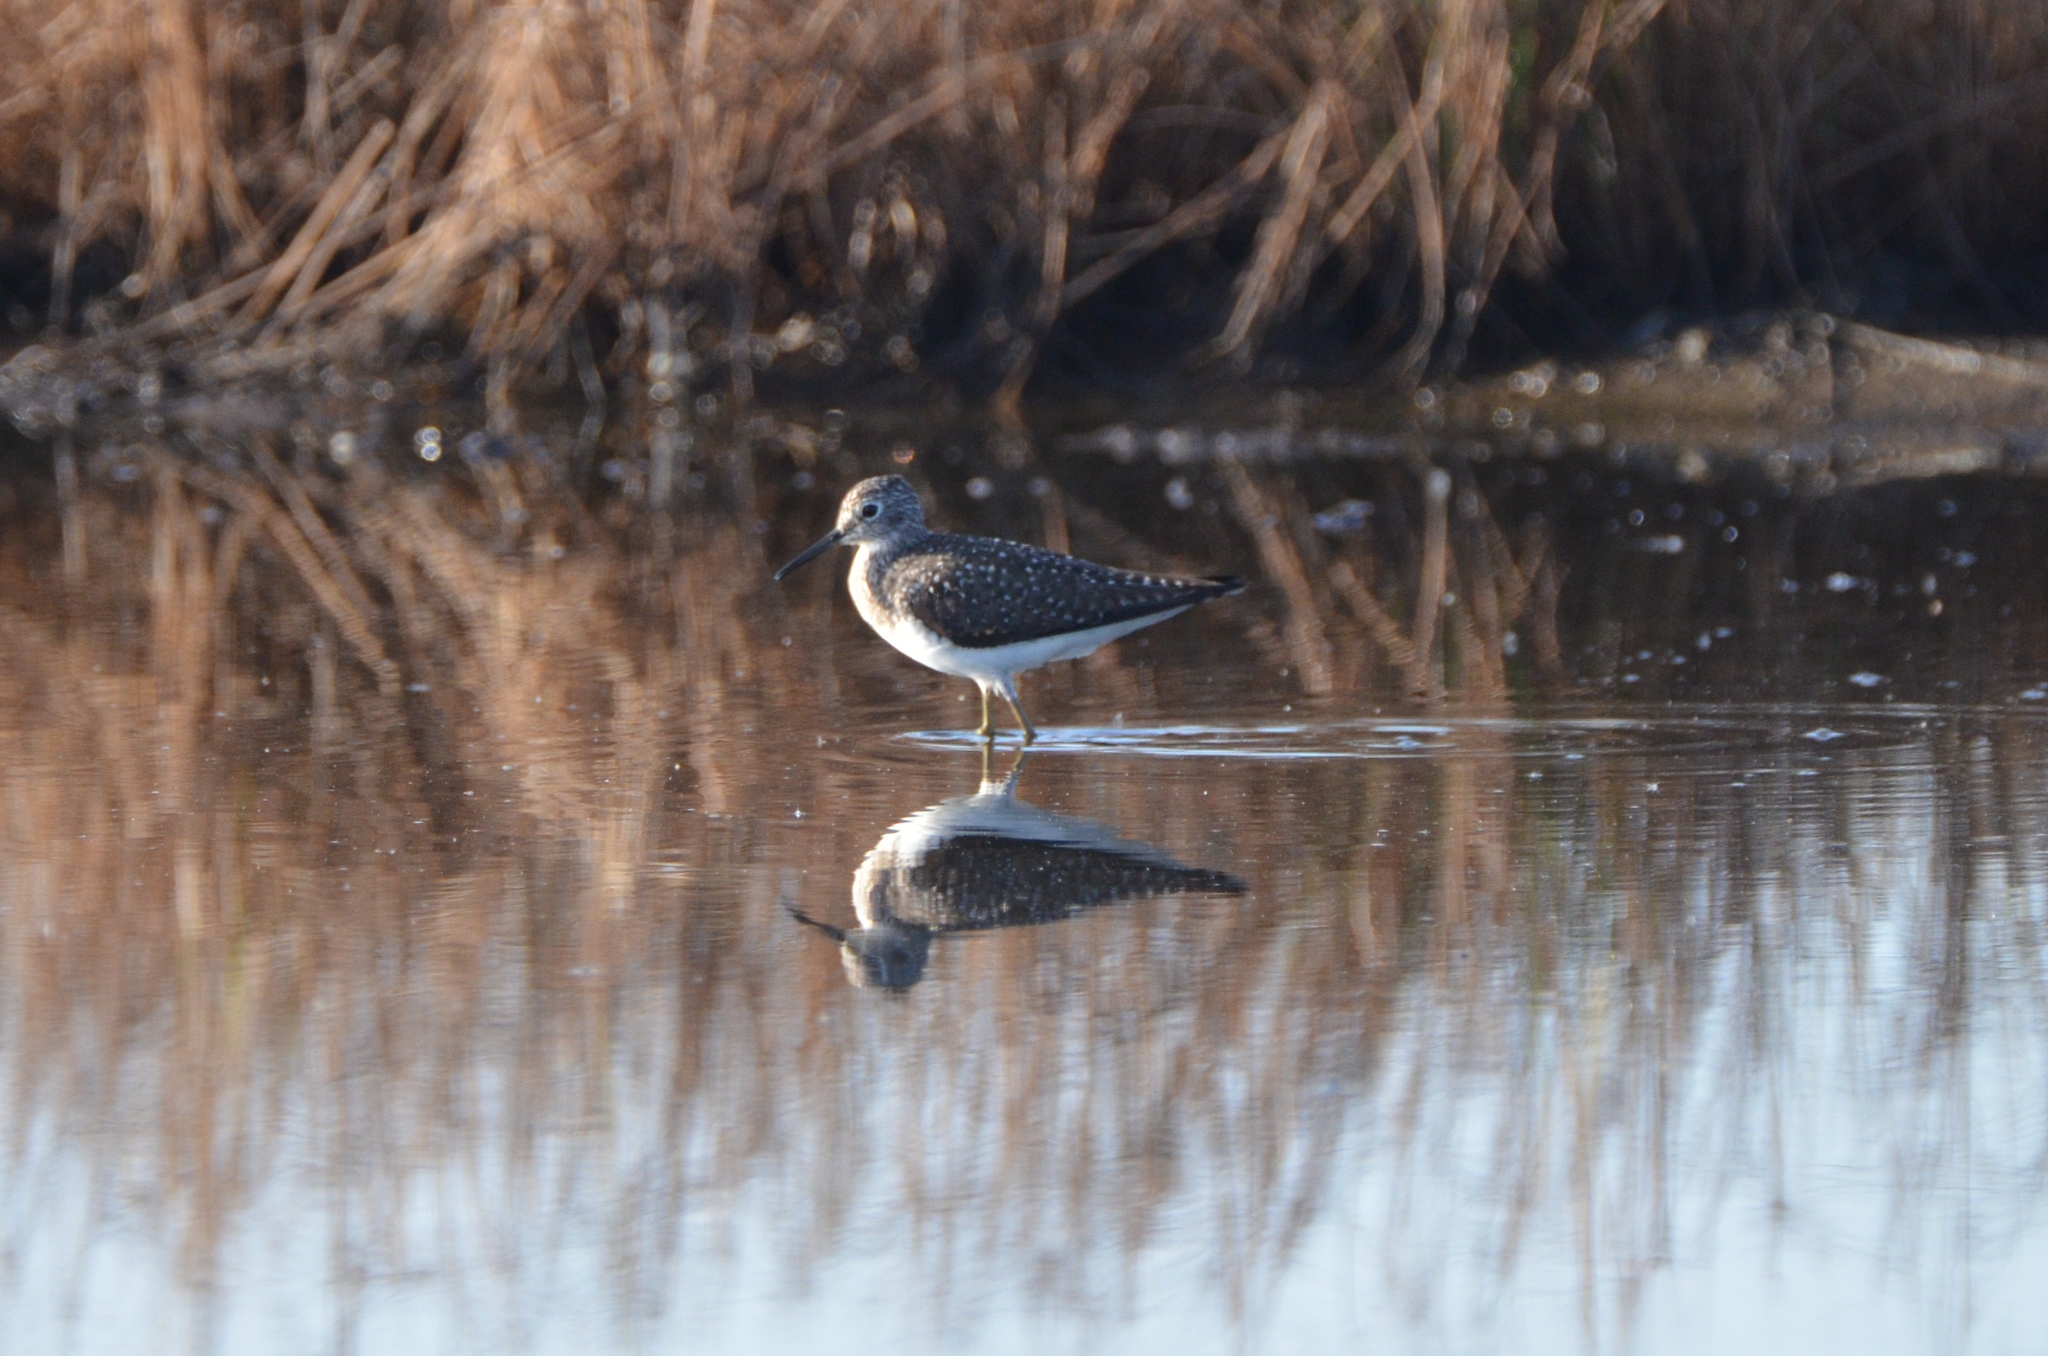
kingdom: Animalia
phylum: Chordata
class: Aves
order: Charadriiformes
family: Scolopacidae
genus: Tringa
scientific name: Tringa solitaria
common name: Solitary sandpiper
